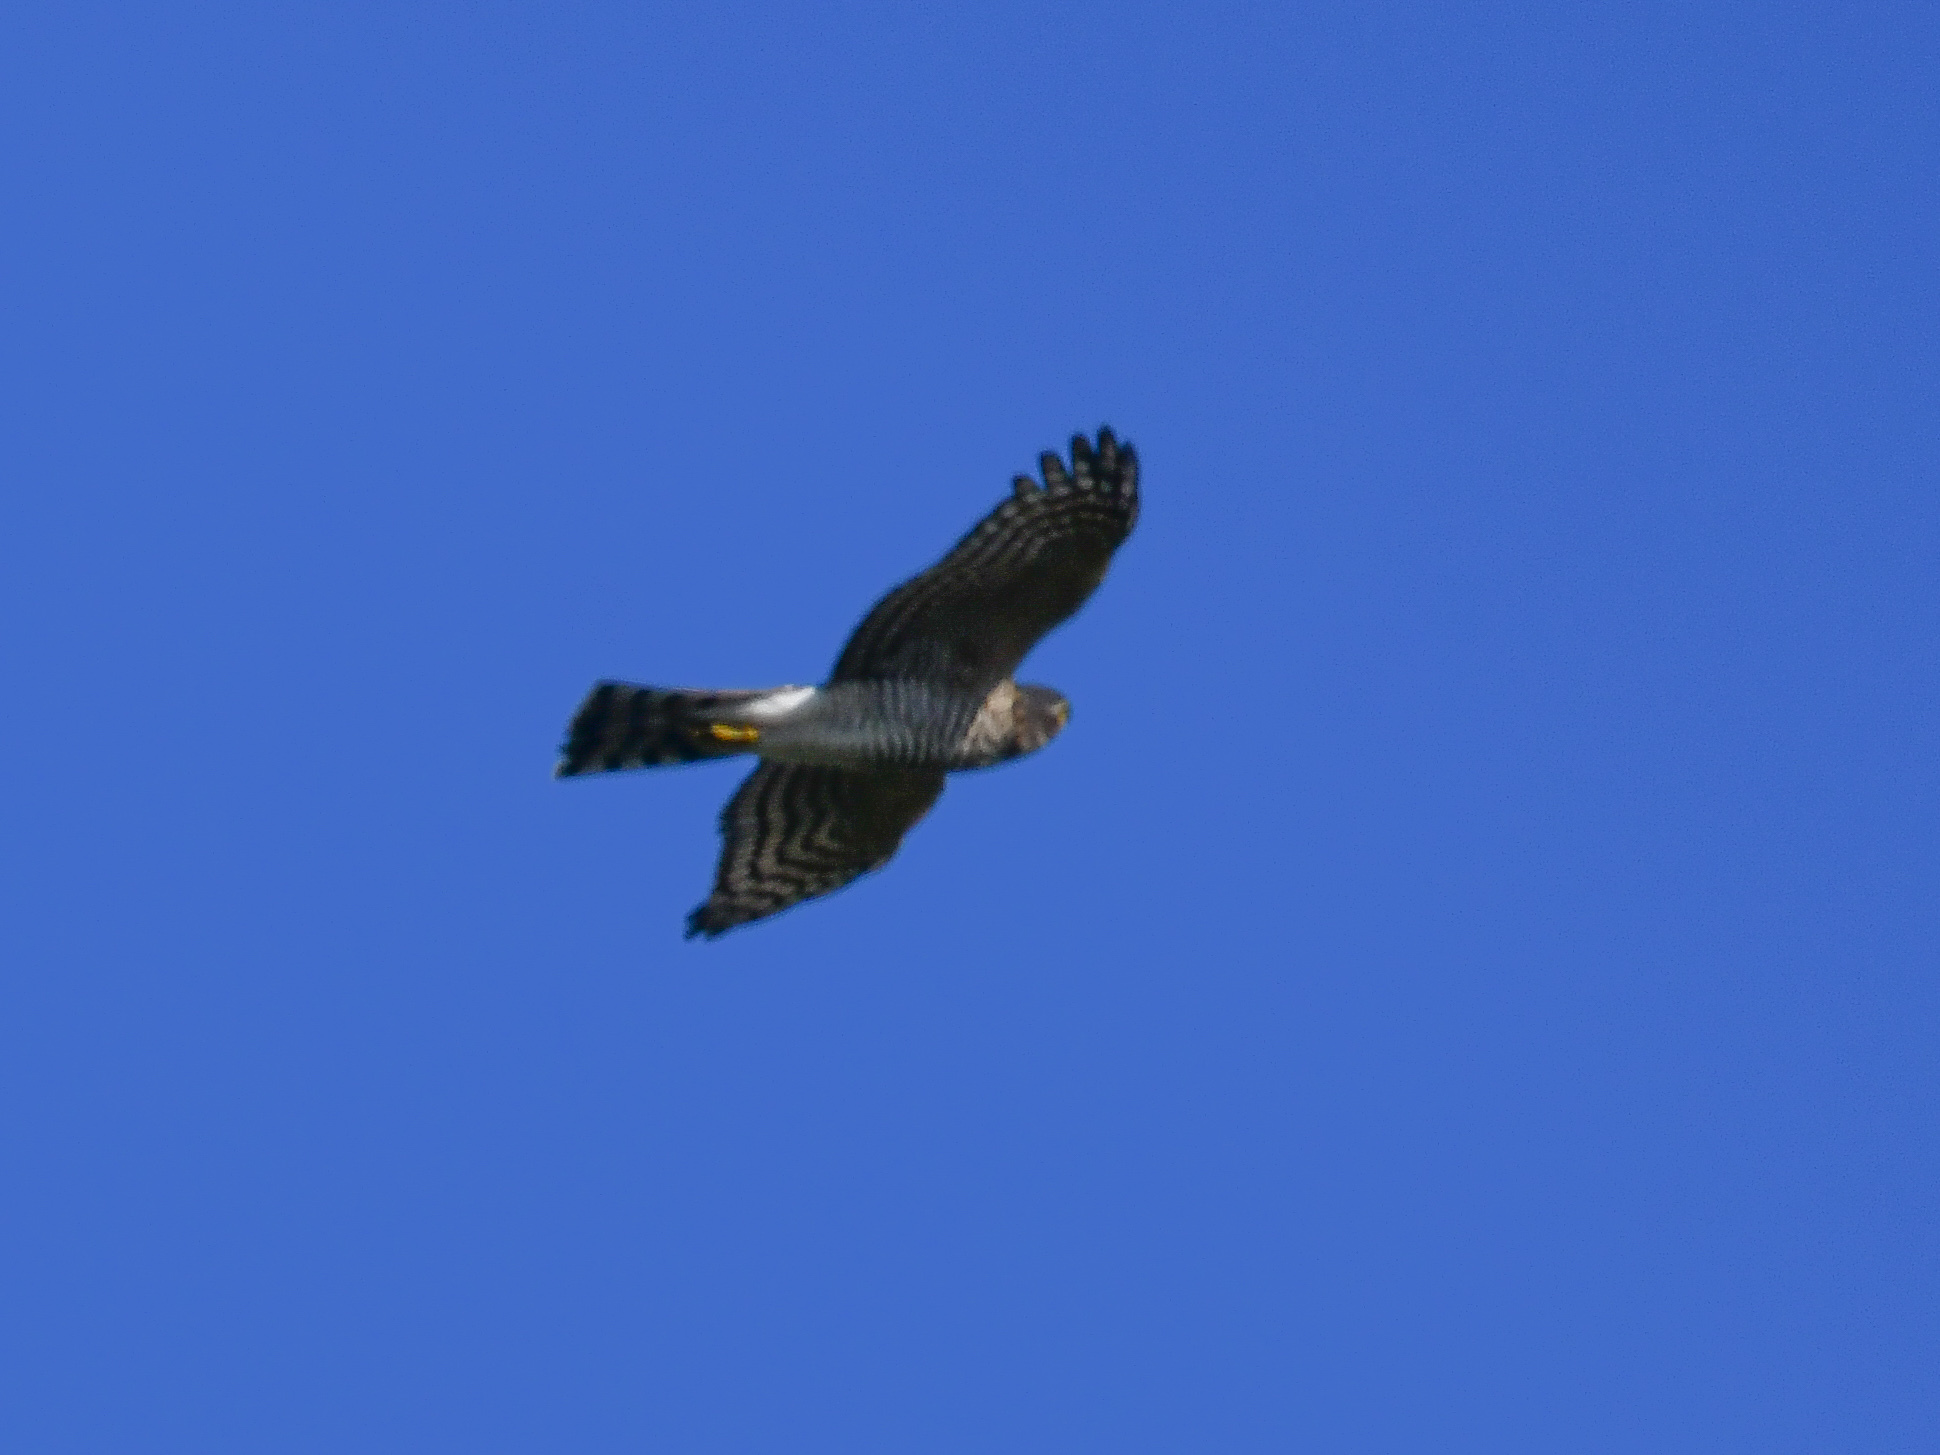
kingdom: Animalia
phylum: Chordata
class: Aves
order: Accipitriformes
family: Accipitridae
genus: Accipiter
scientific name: Accipiter nisus
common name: Eurasian sparrowhawk
